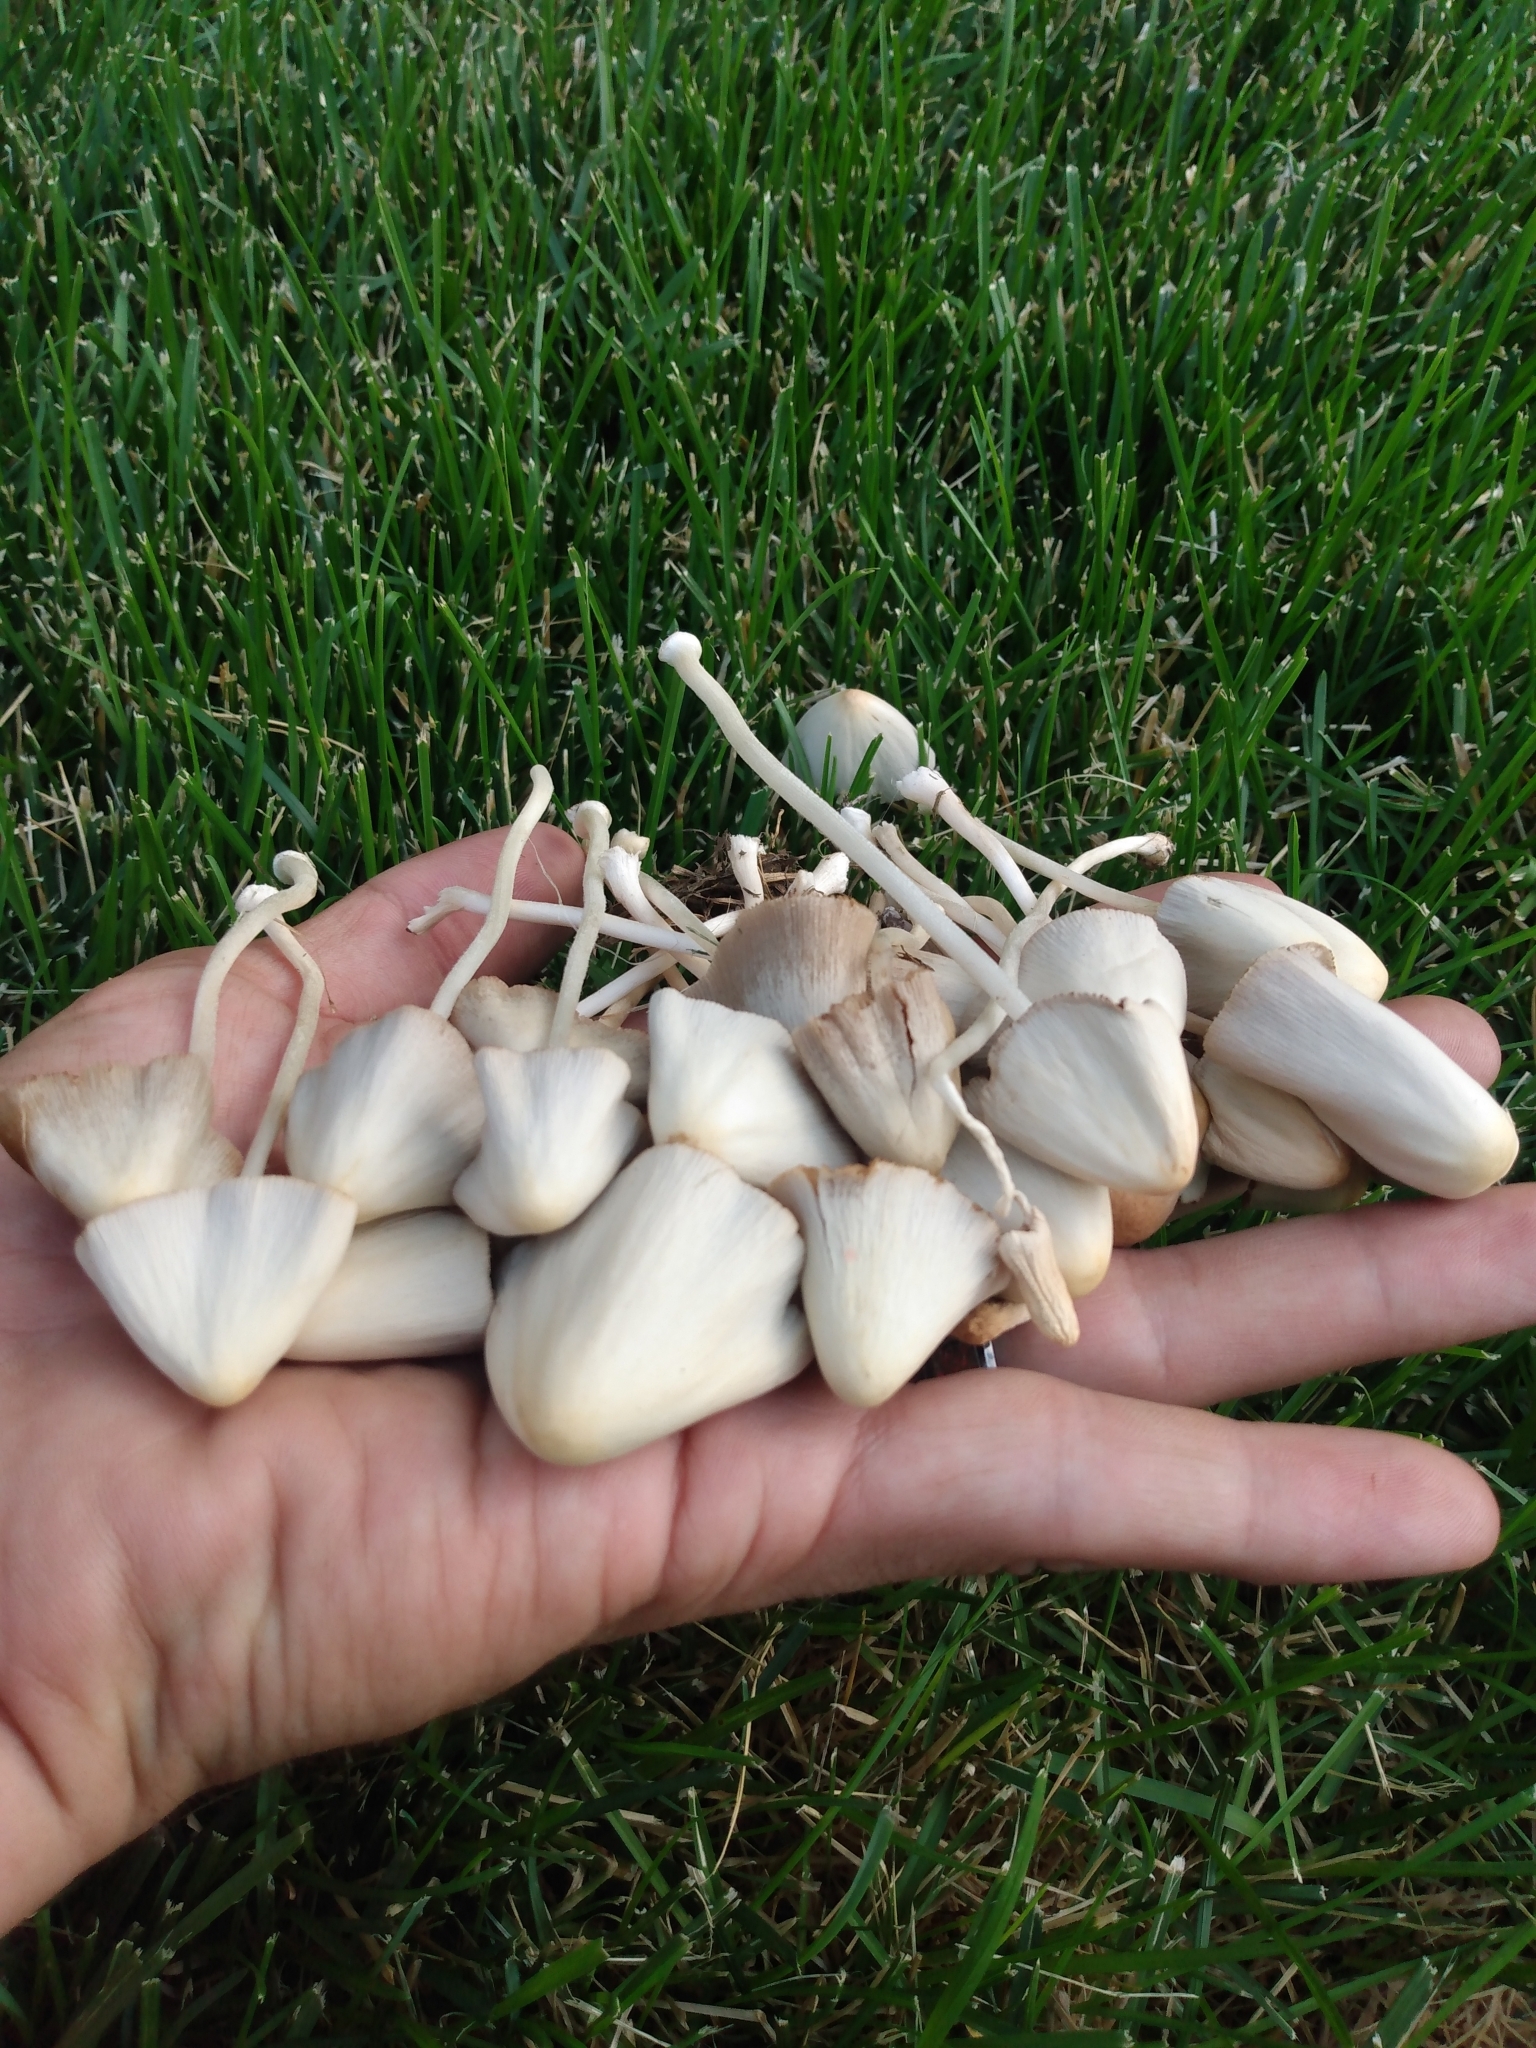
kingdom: Fungi
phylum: Basidiomycota
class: Agaricomycetes
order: Agaricales
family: Bolbitiaceae
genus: Conocybe
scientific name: Conocybe apala
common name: Milky conecap
